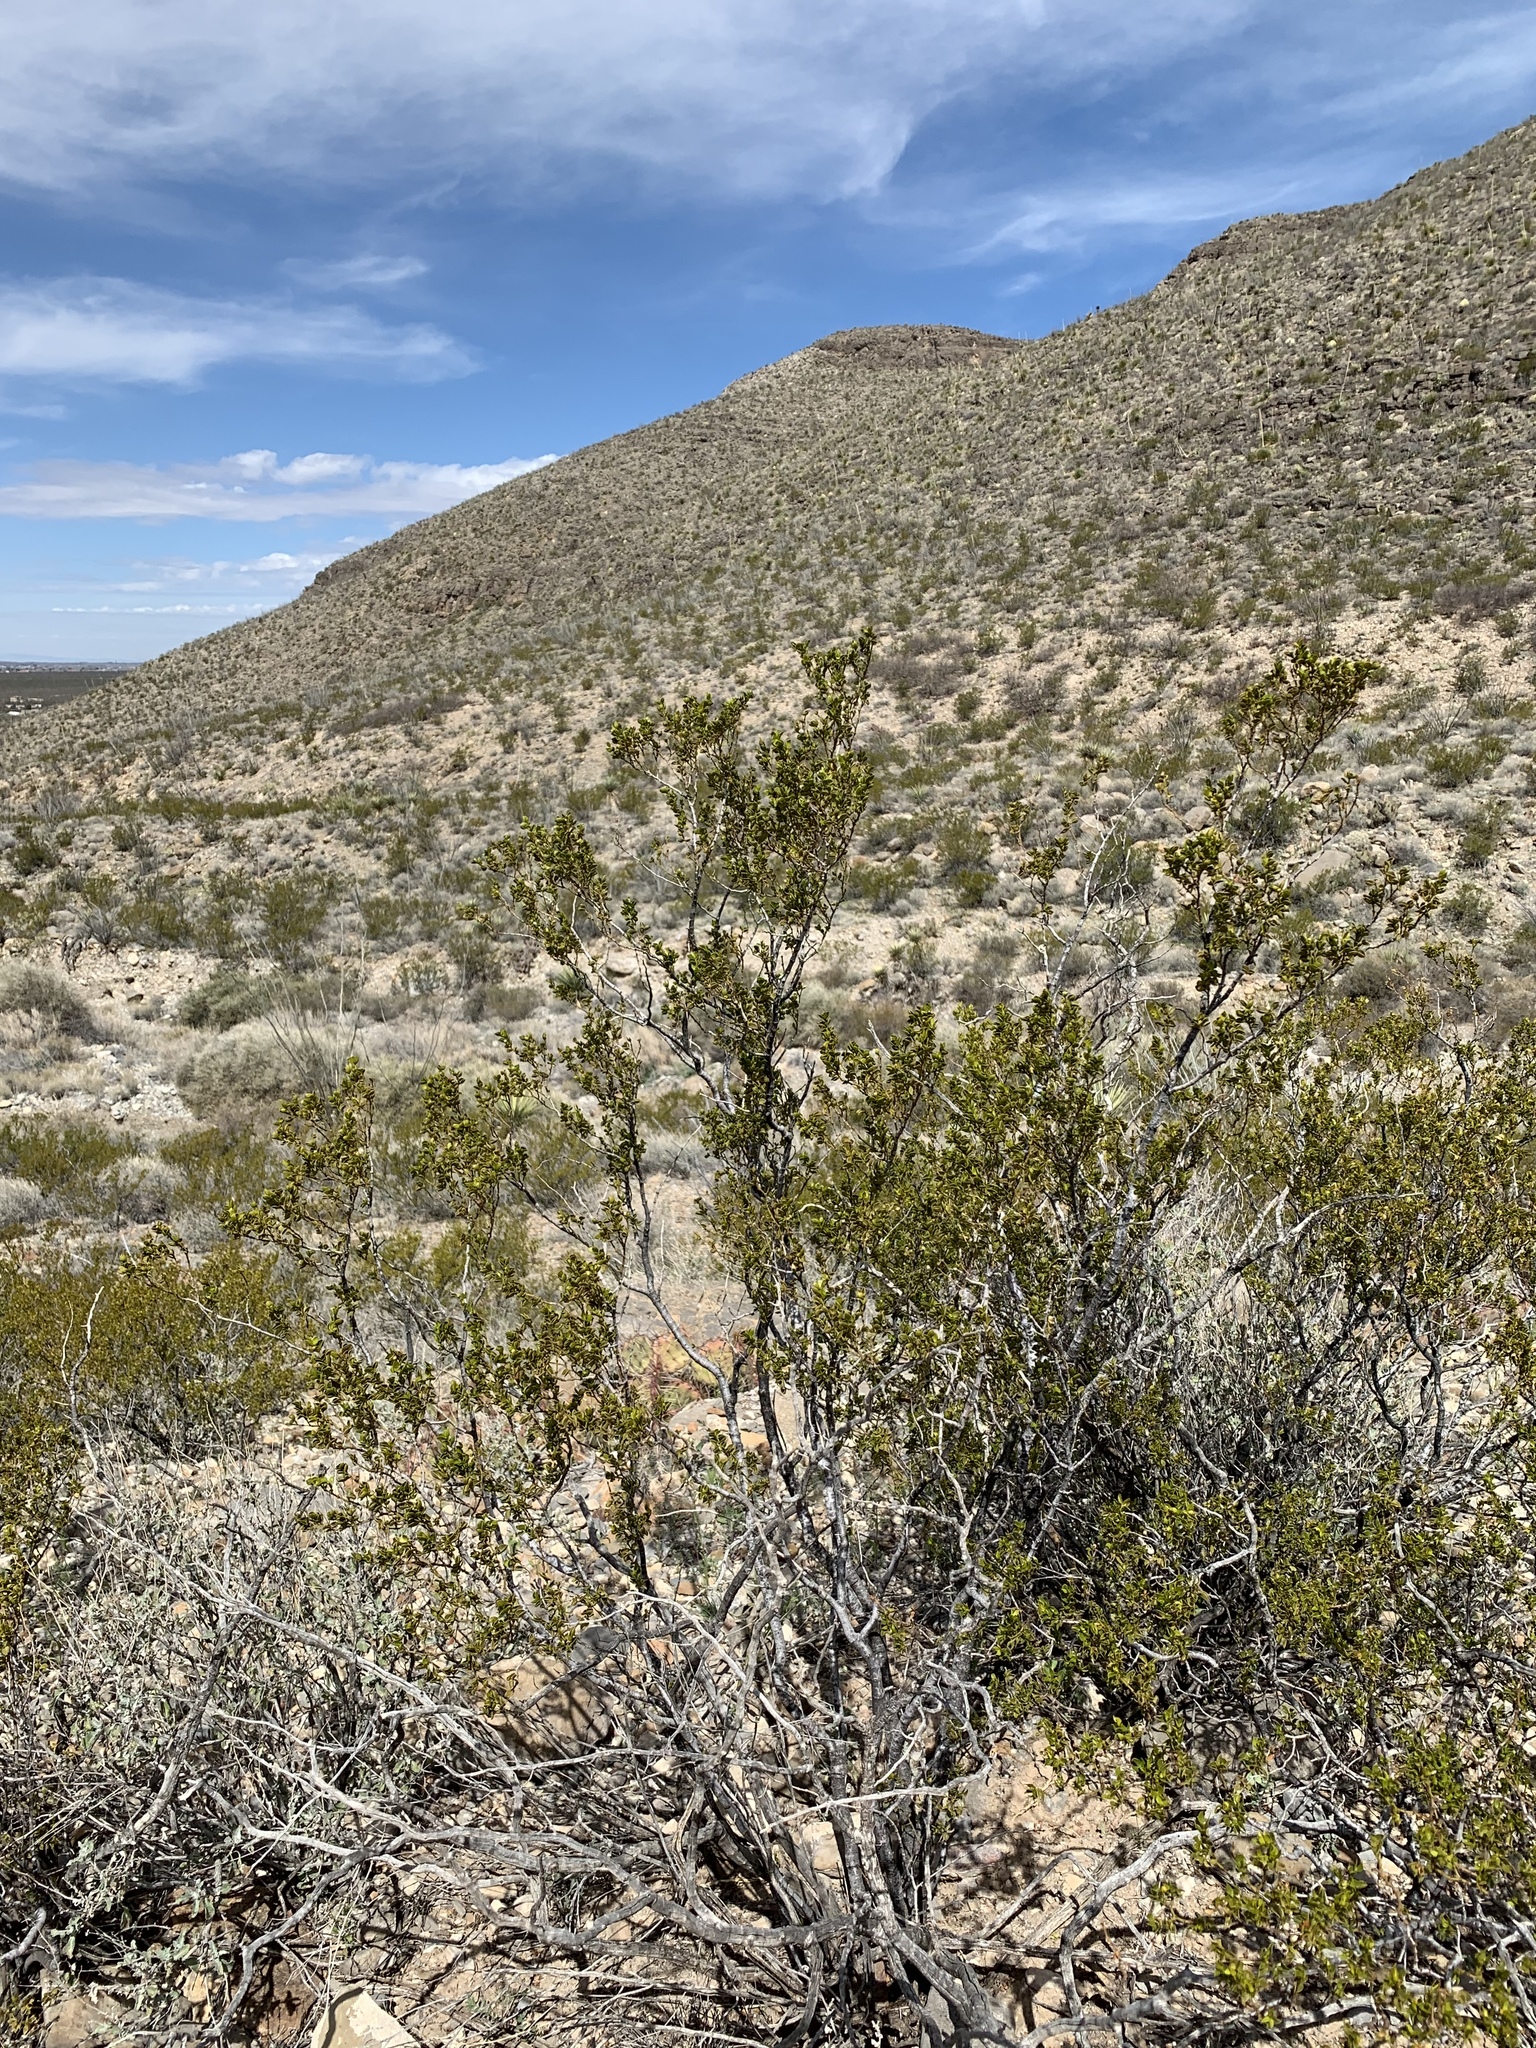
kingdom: Plantae
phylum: Tracheophyta
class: Magnoliopsida
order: Zygophyllales
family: Zygophyllaceae
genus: Larrea
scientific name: Larrea tridentata
